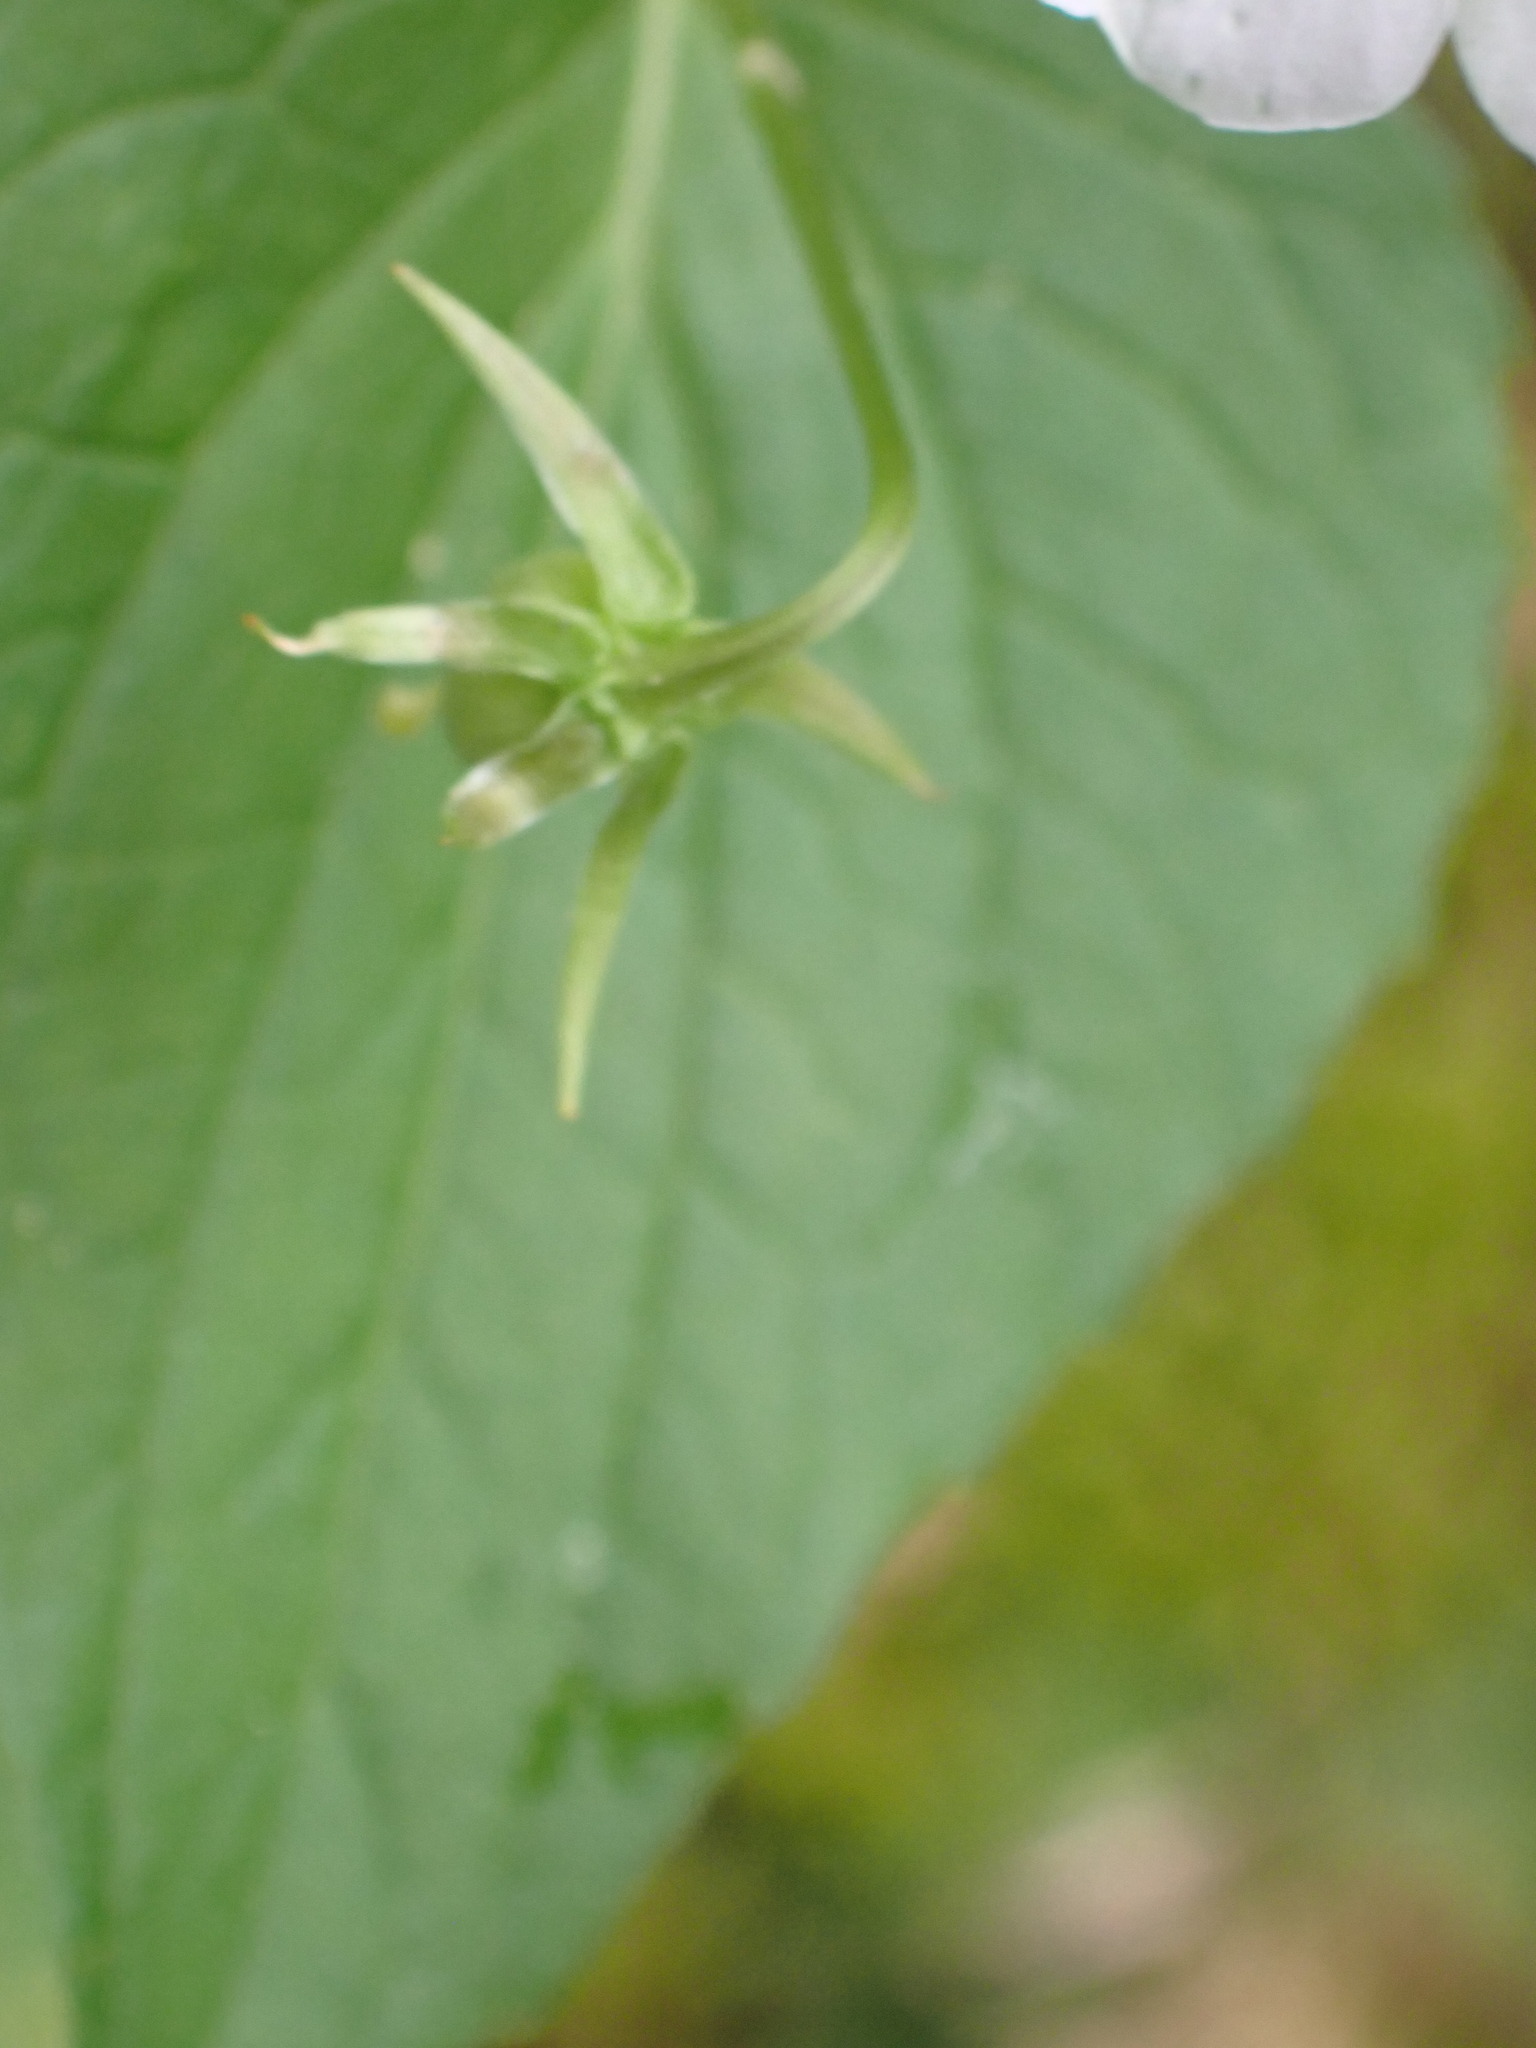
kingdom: Plantae
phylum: Tracheophyta
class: Magnoliopsida
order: Malpighiales
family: Violaceae
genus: Viola
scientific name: Viola canadensis
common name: Canada violet
